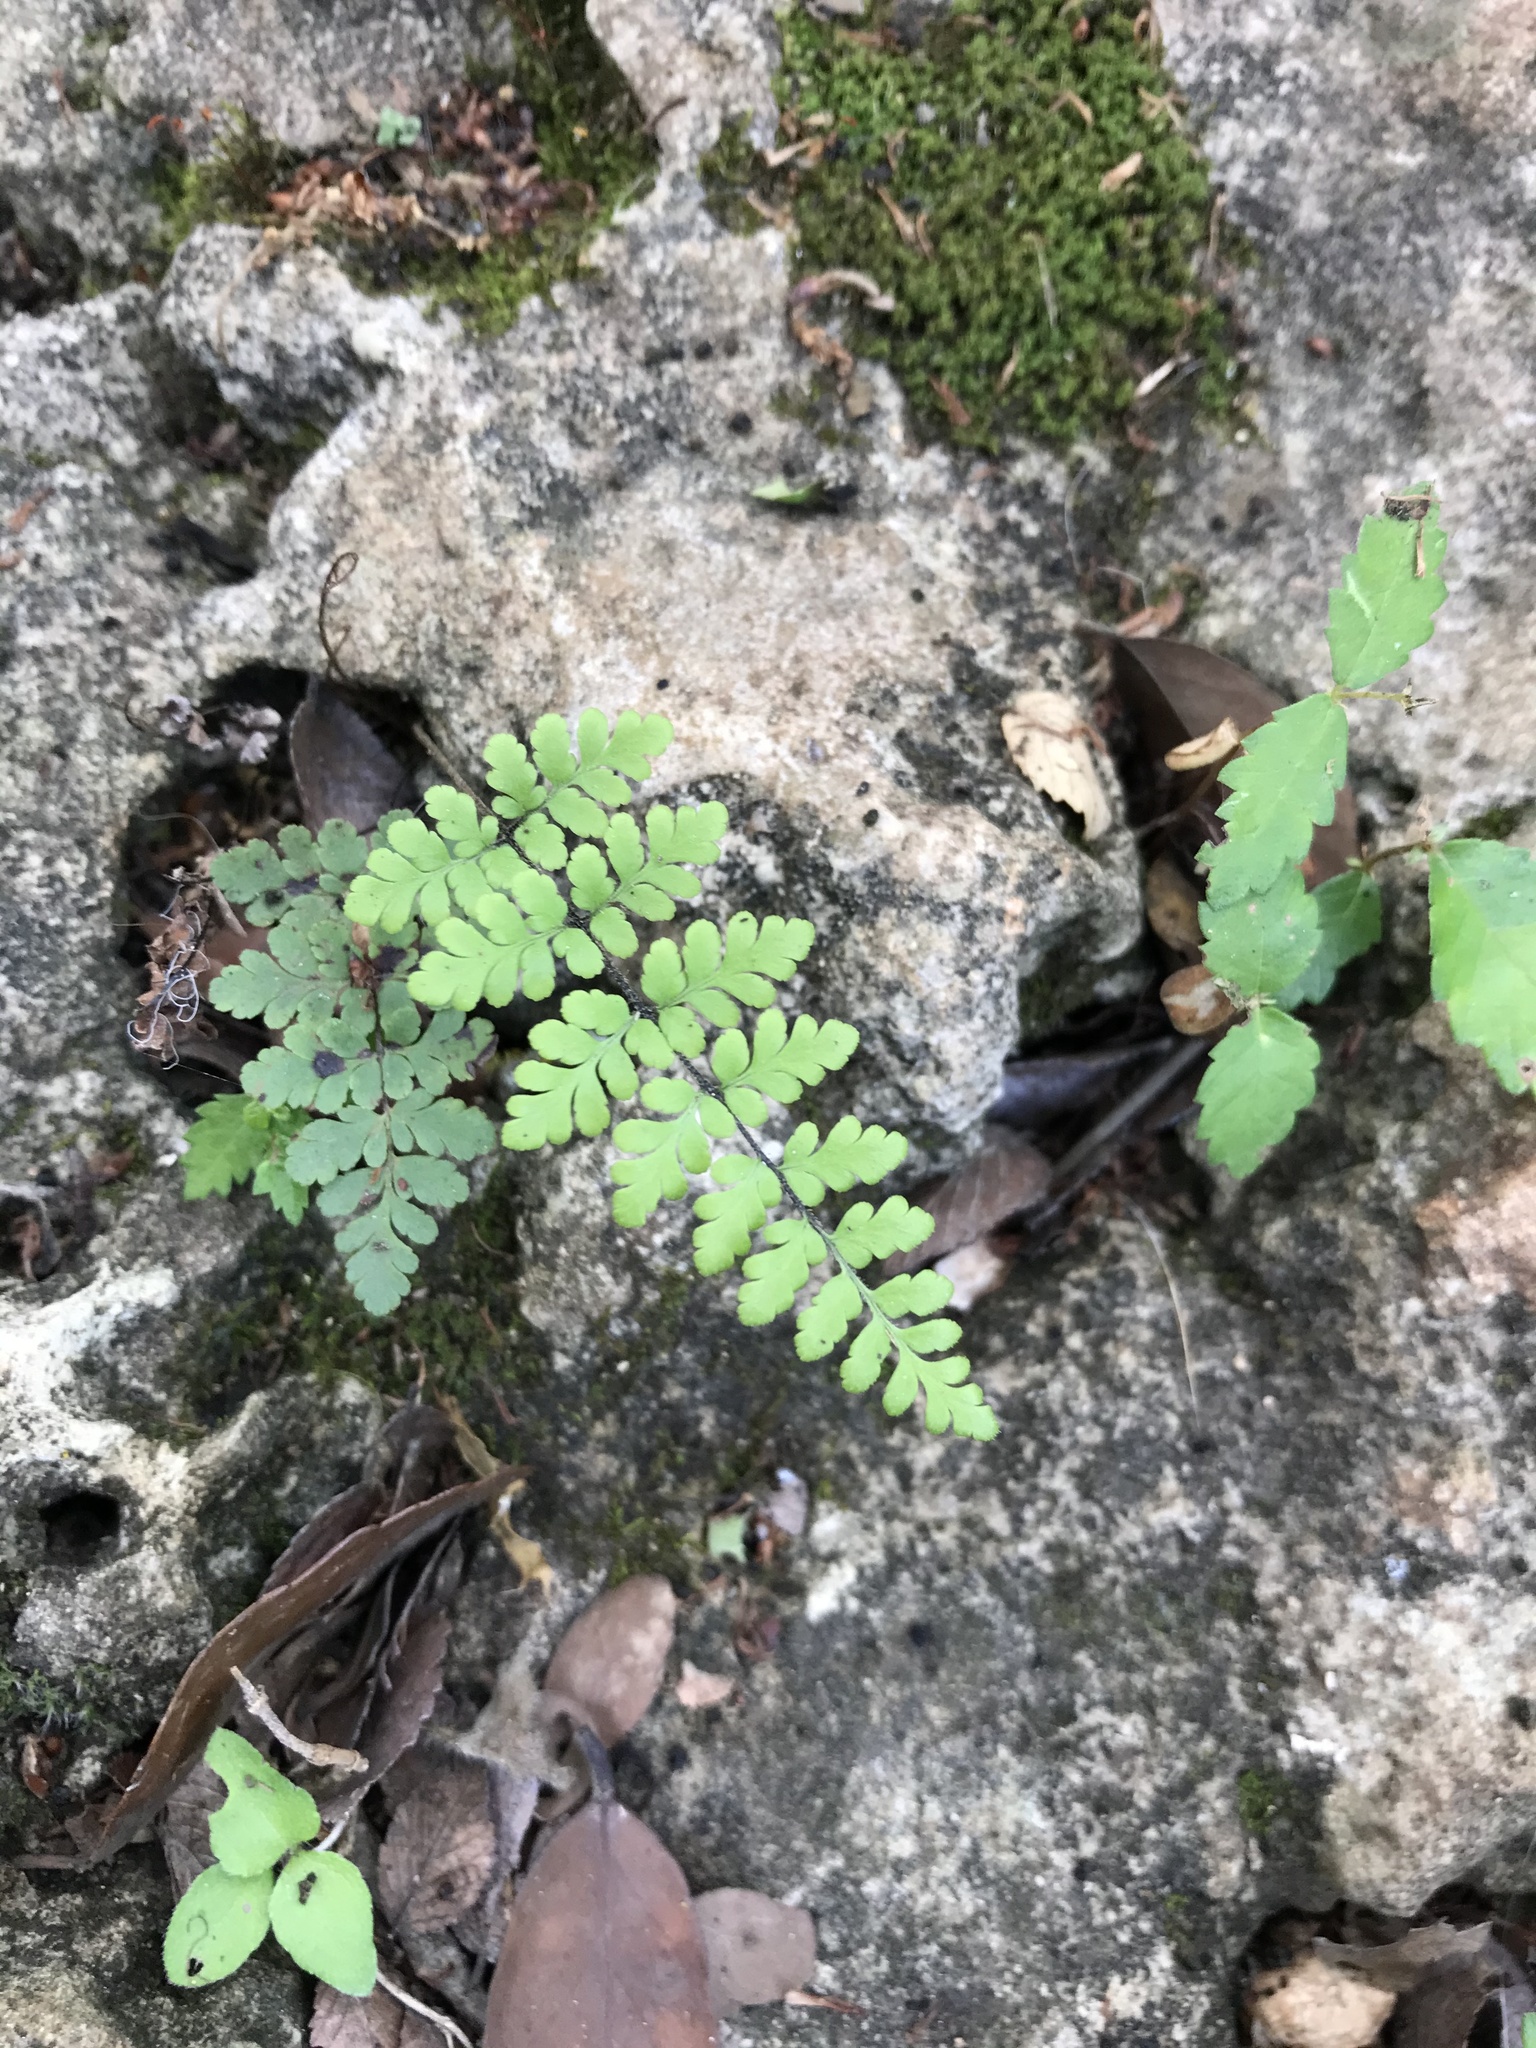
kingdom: Plantae
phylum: Tracheophyta
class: Polypodiopsida
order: Polypodiales
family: Pteridaceae
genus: Myriopteris
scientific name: Myriopteris alabamensis
